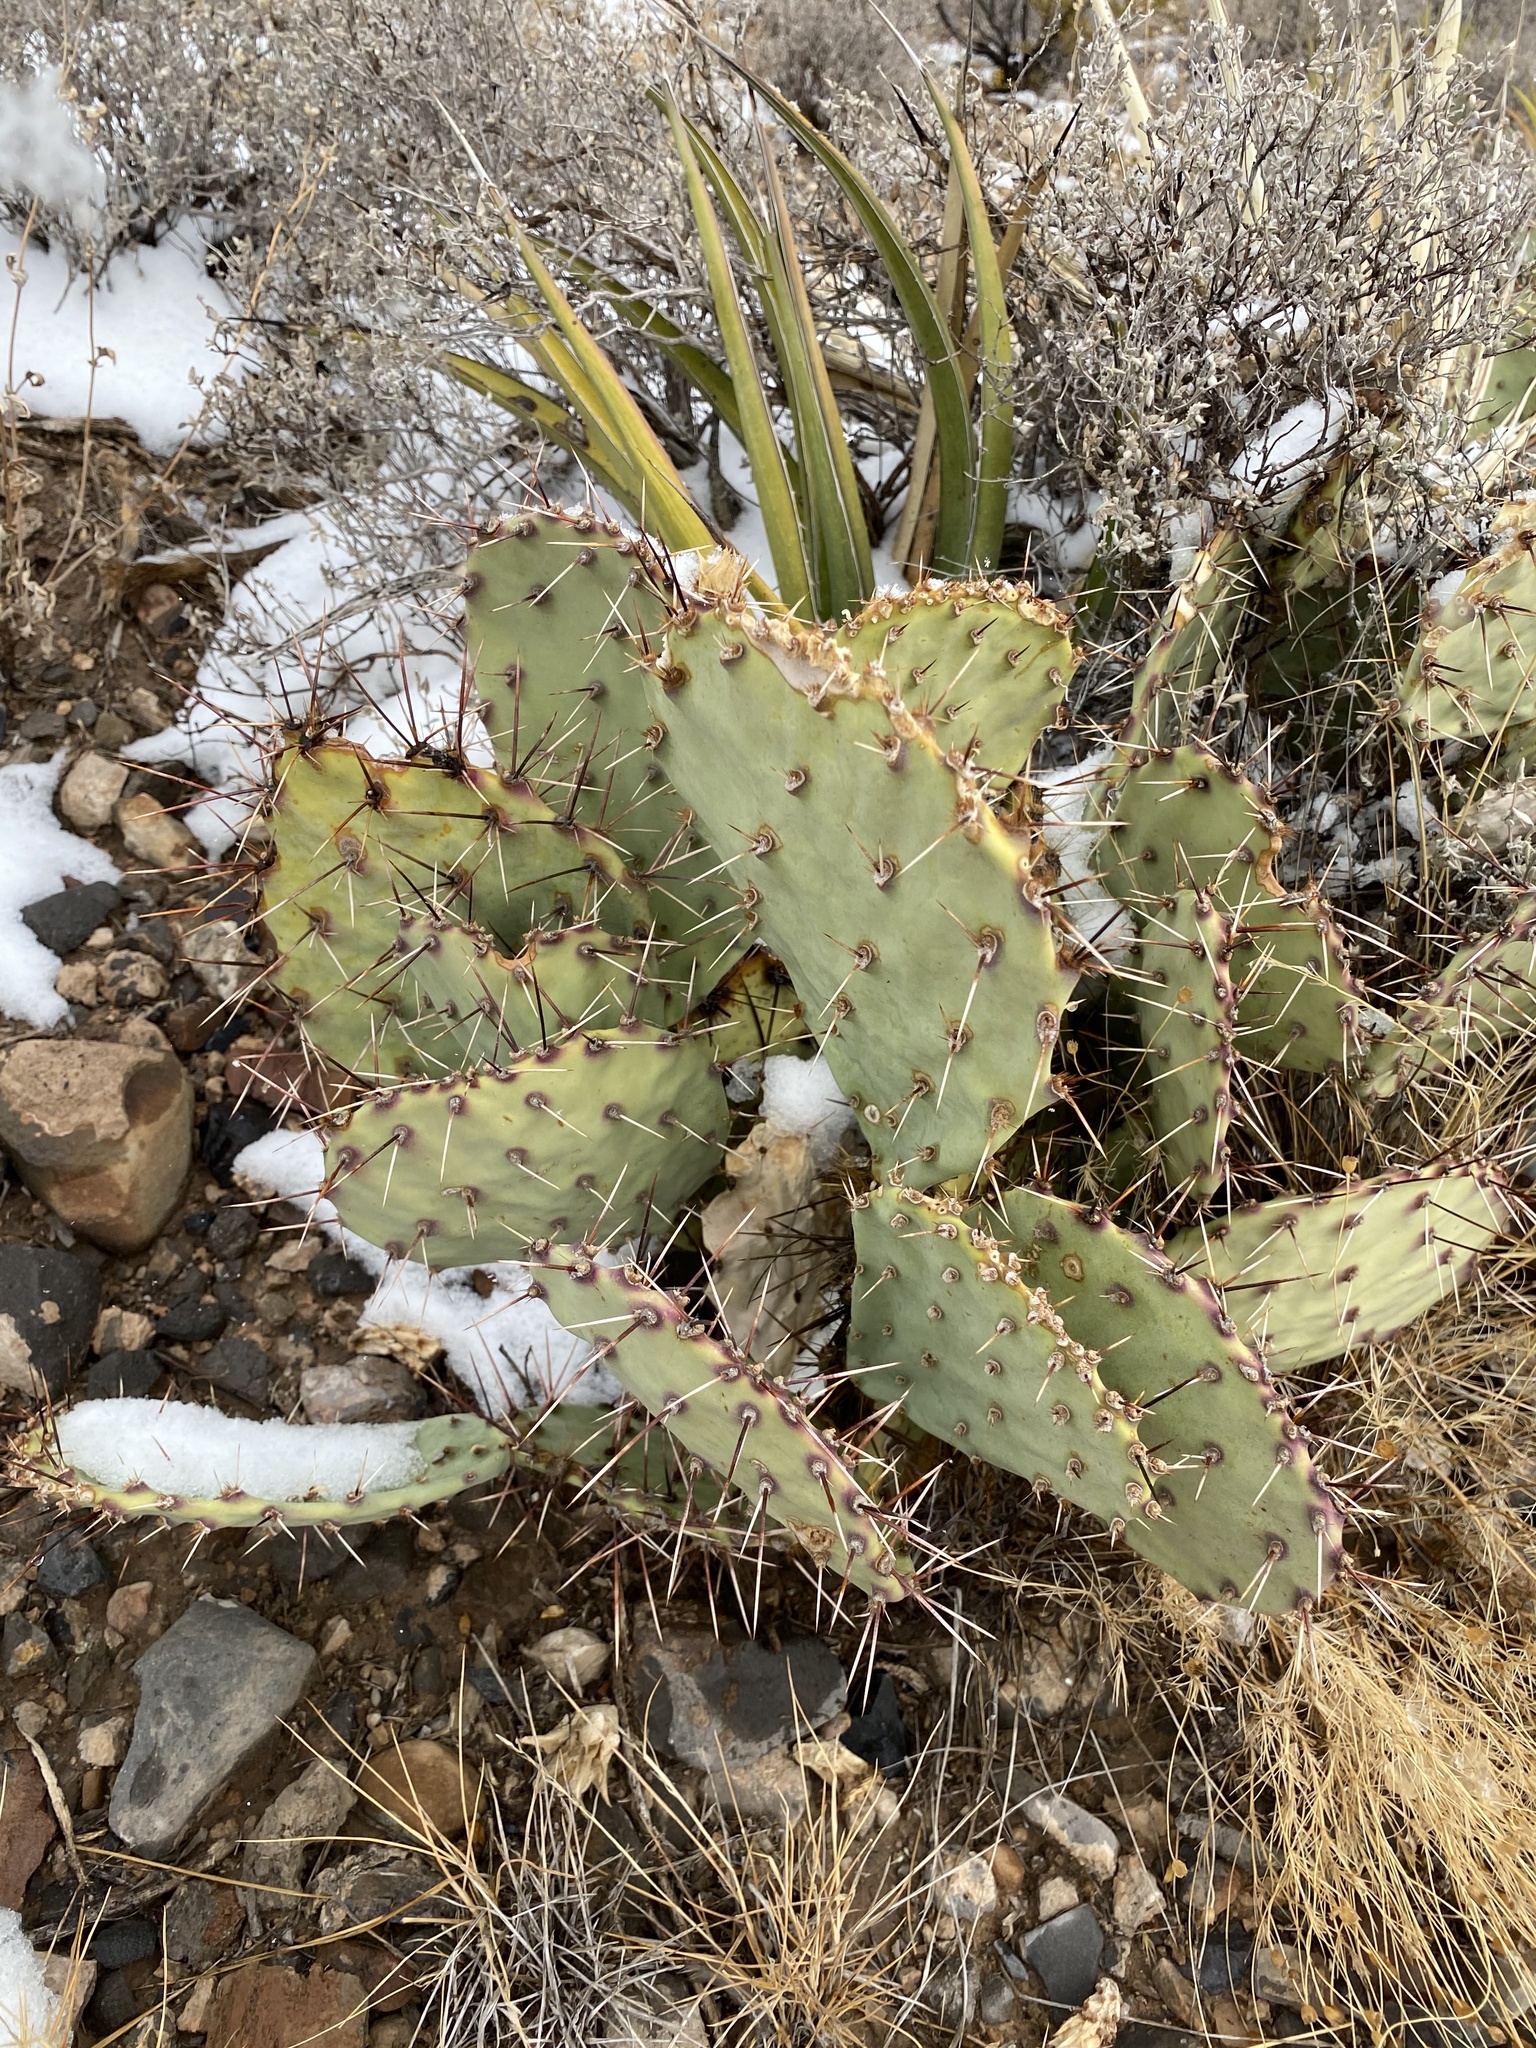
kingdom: Plantae
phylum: Tracheophyta
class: Magnoliopsida
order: Caryophyllales
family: Cactaceae
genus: Opuntia
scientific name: Opuntia engelmannii
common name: Cactus-apple
